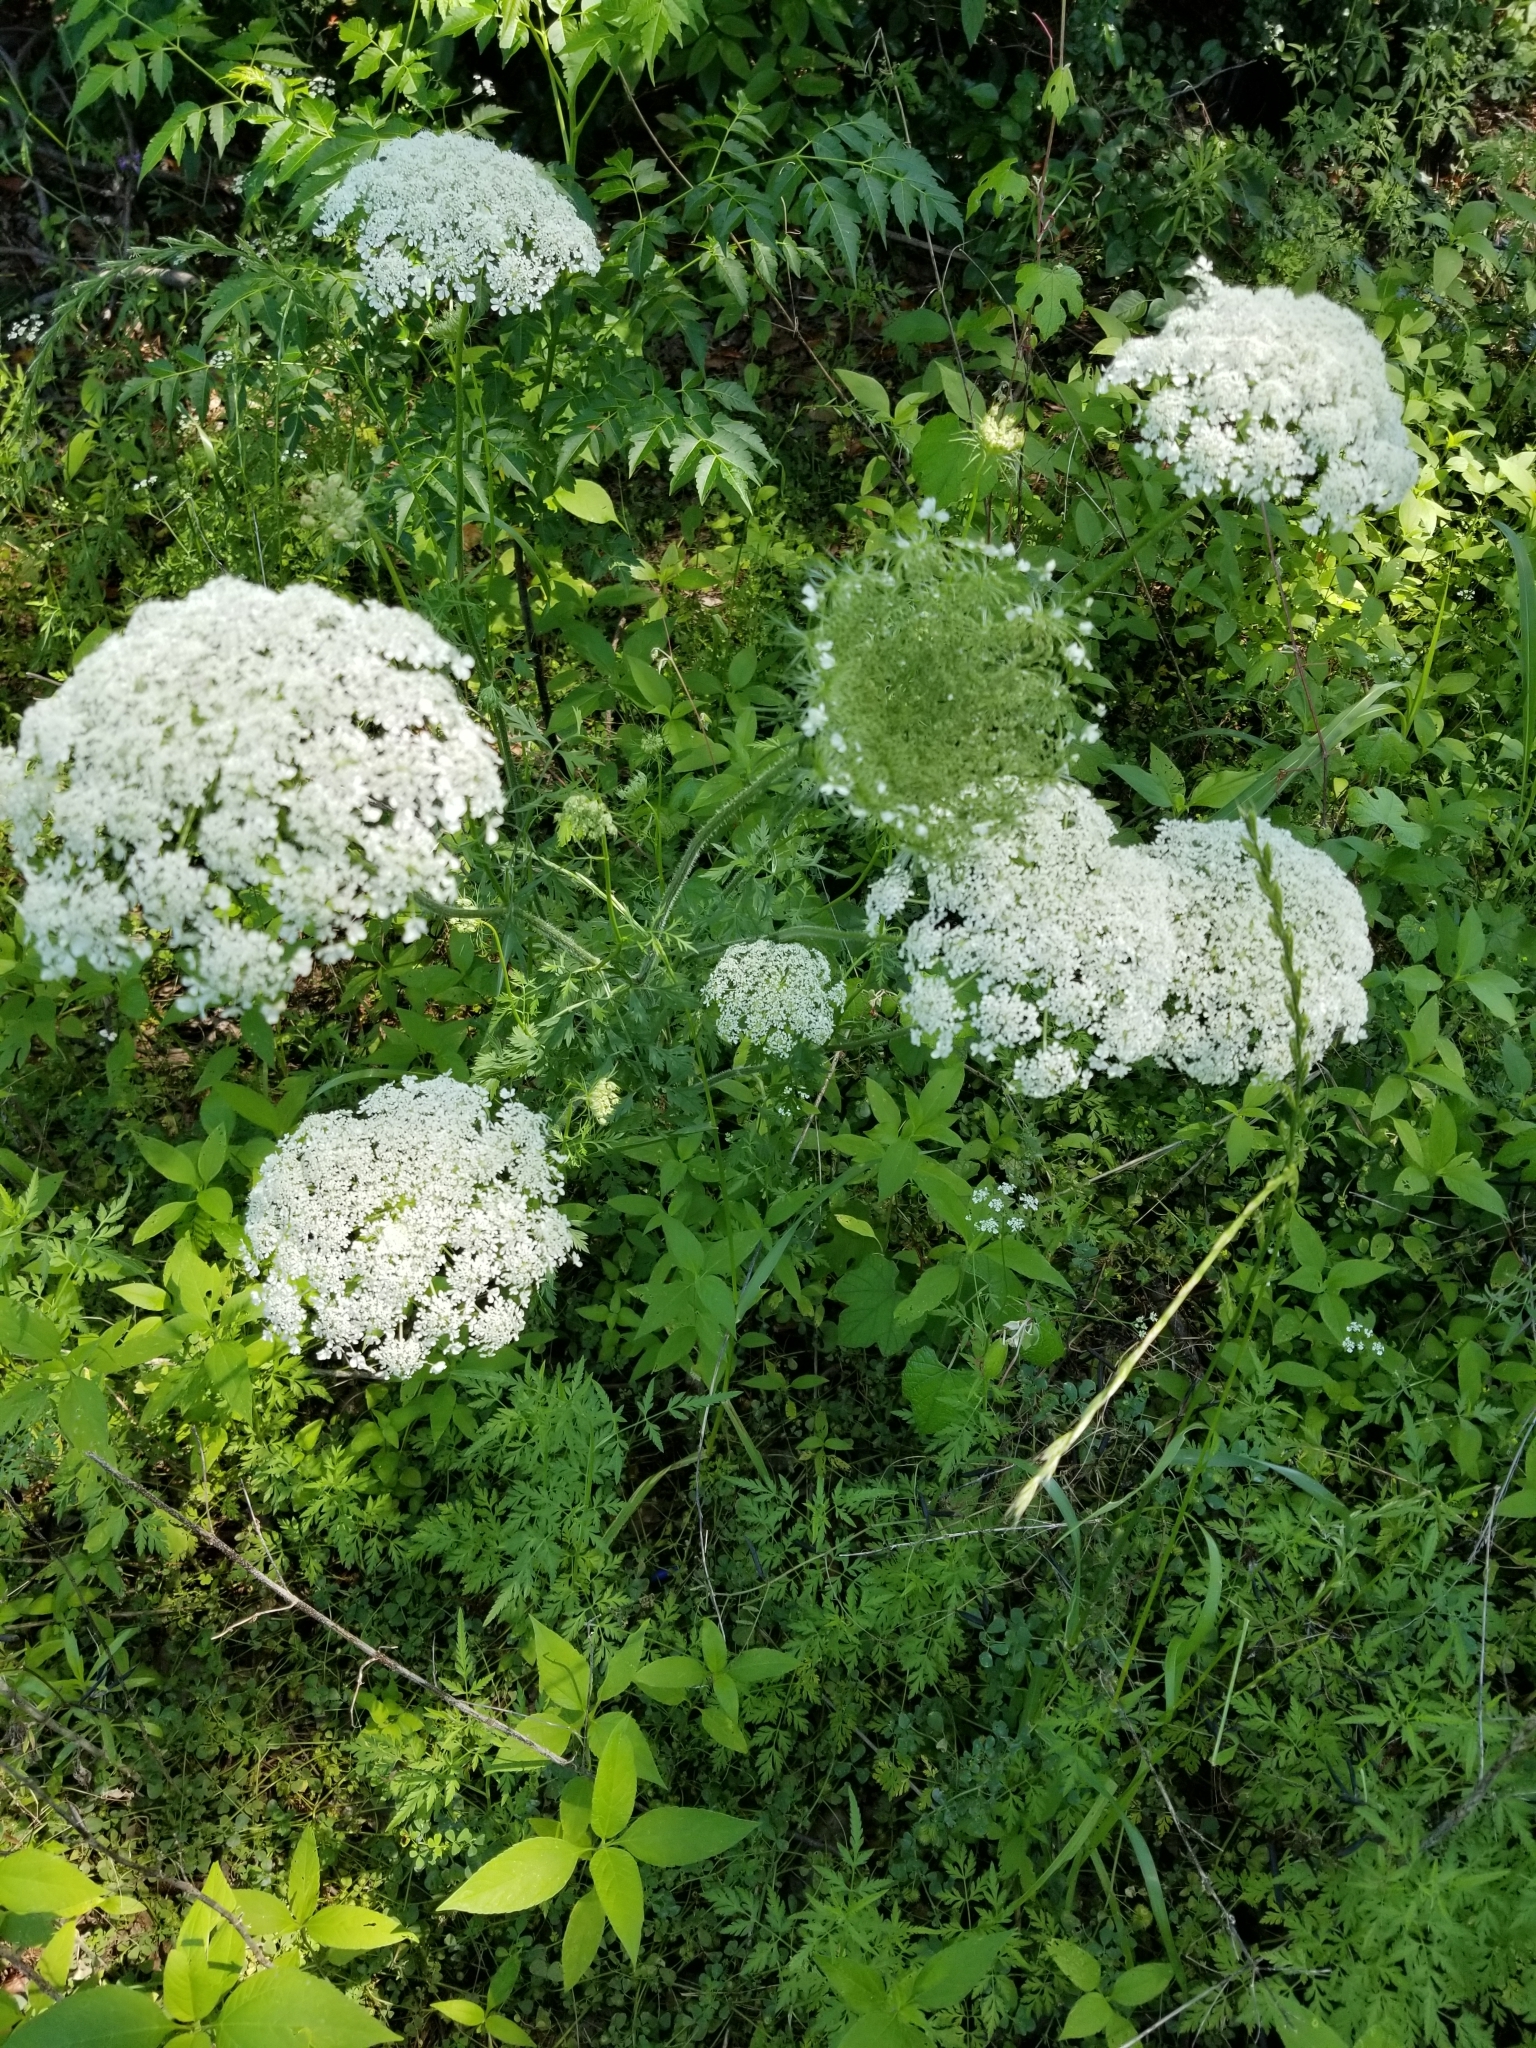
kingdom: Plantae
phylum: Tracheophyta
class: Magnoliopsida
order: Apiales
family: Apiaceae
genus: Daucus
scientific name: Daucus carota
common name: Wild carrot
